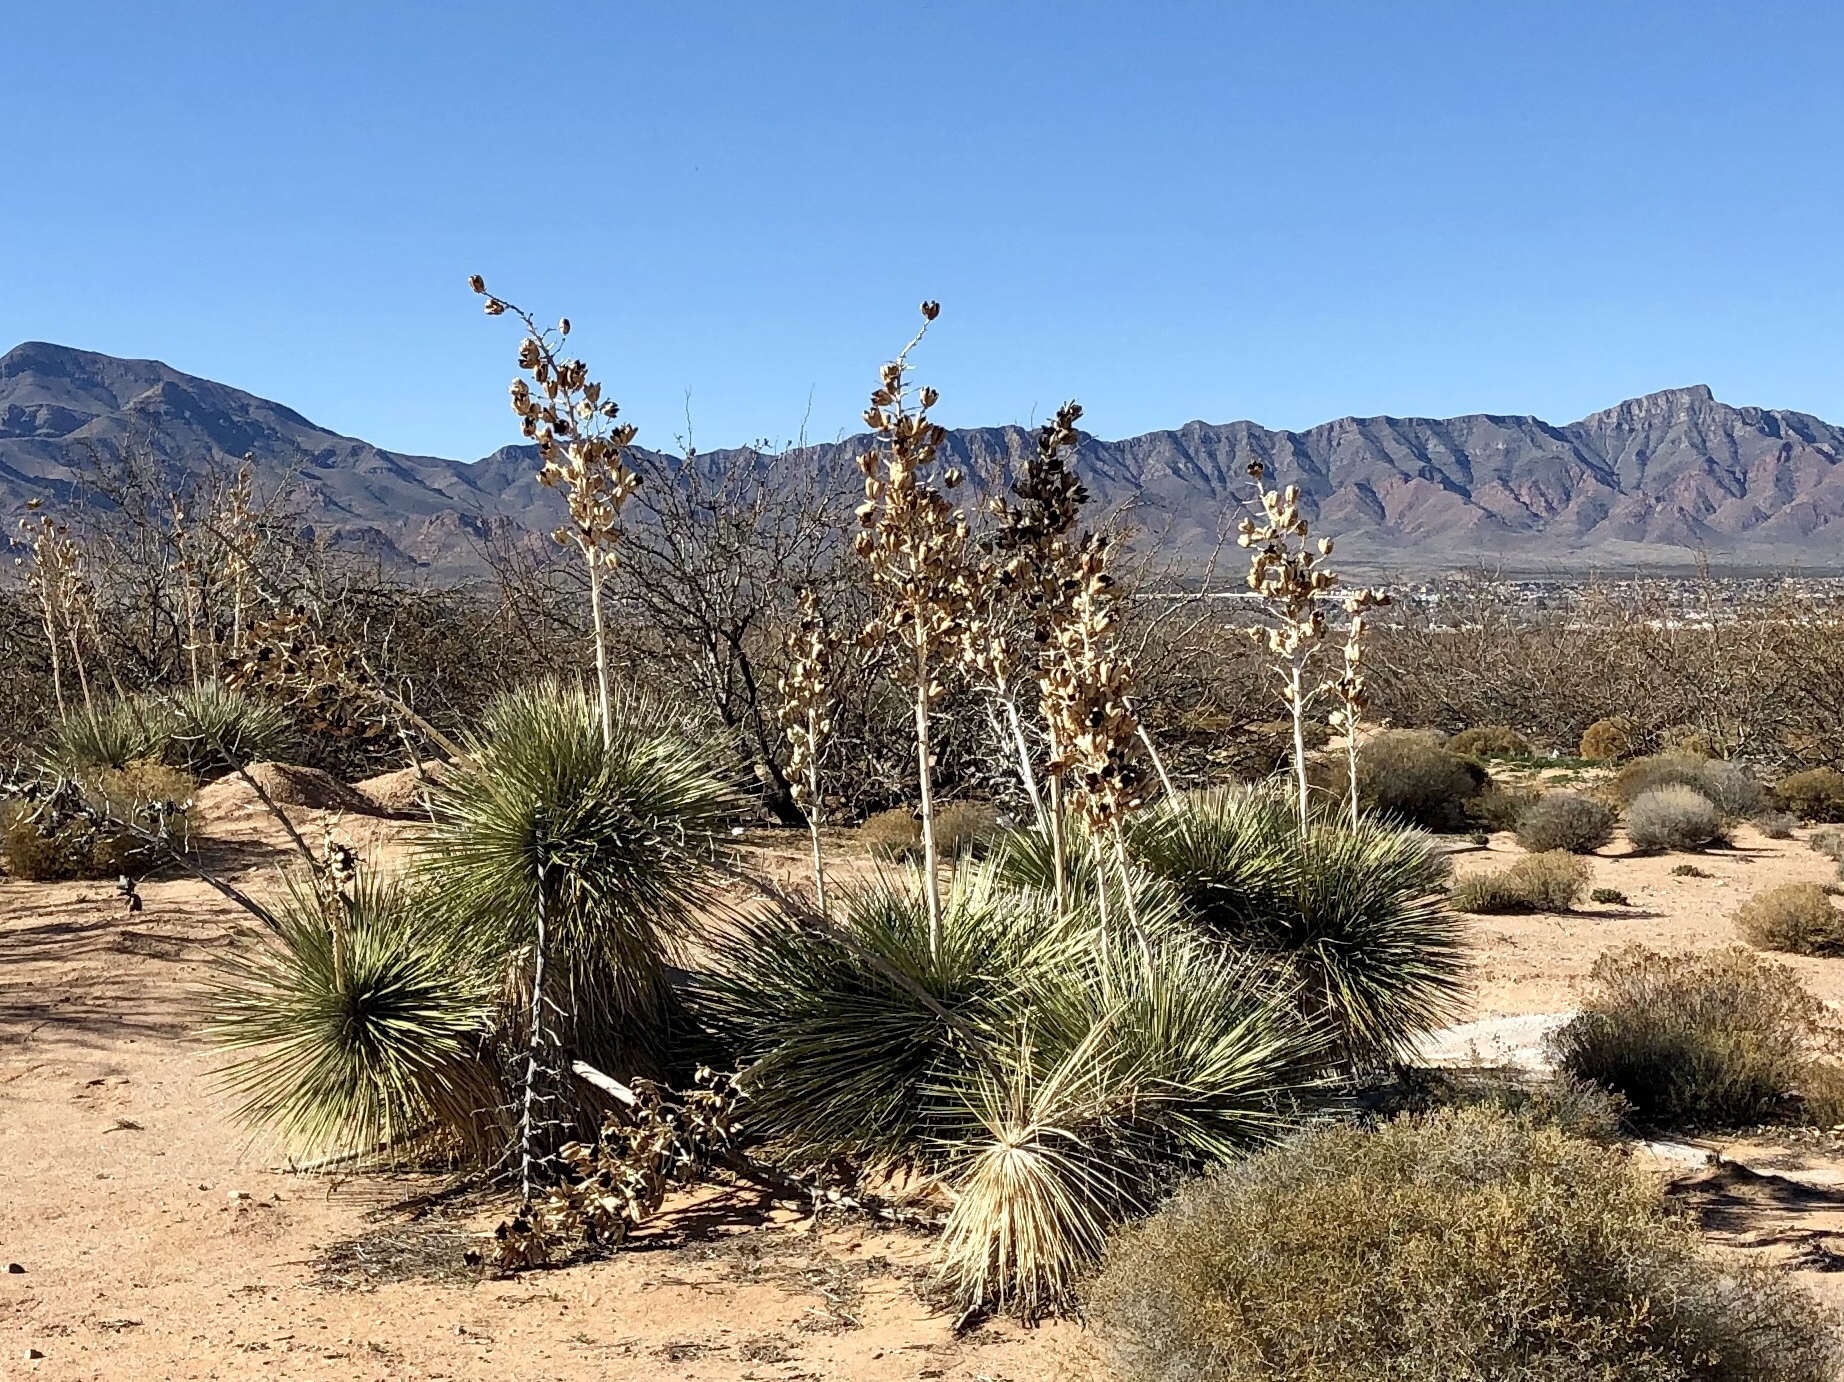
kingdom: Plantae
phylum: Tracheophyta
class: Liliopsida
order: Asparagales
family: Asparagaceae
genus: Yucca
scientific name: Yucca elata
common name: Palmella
